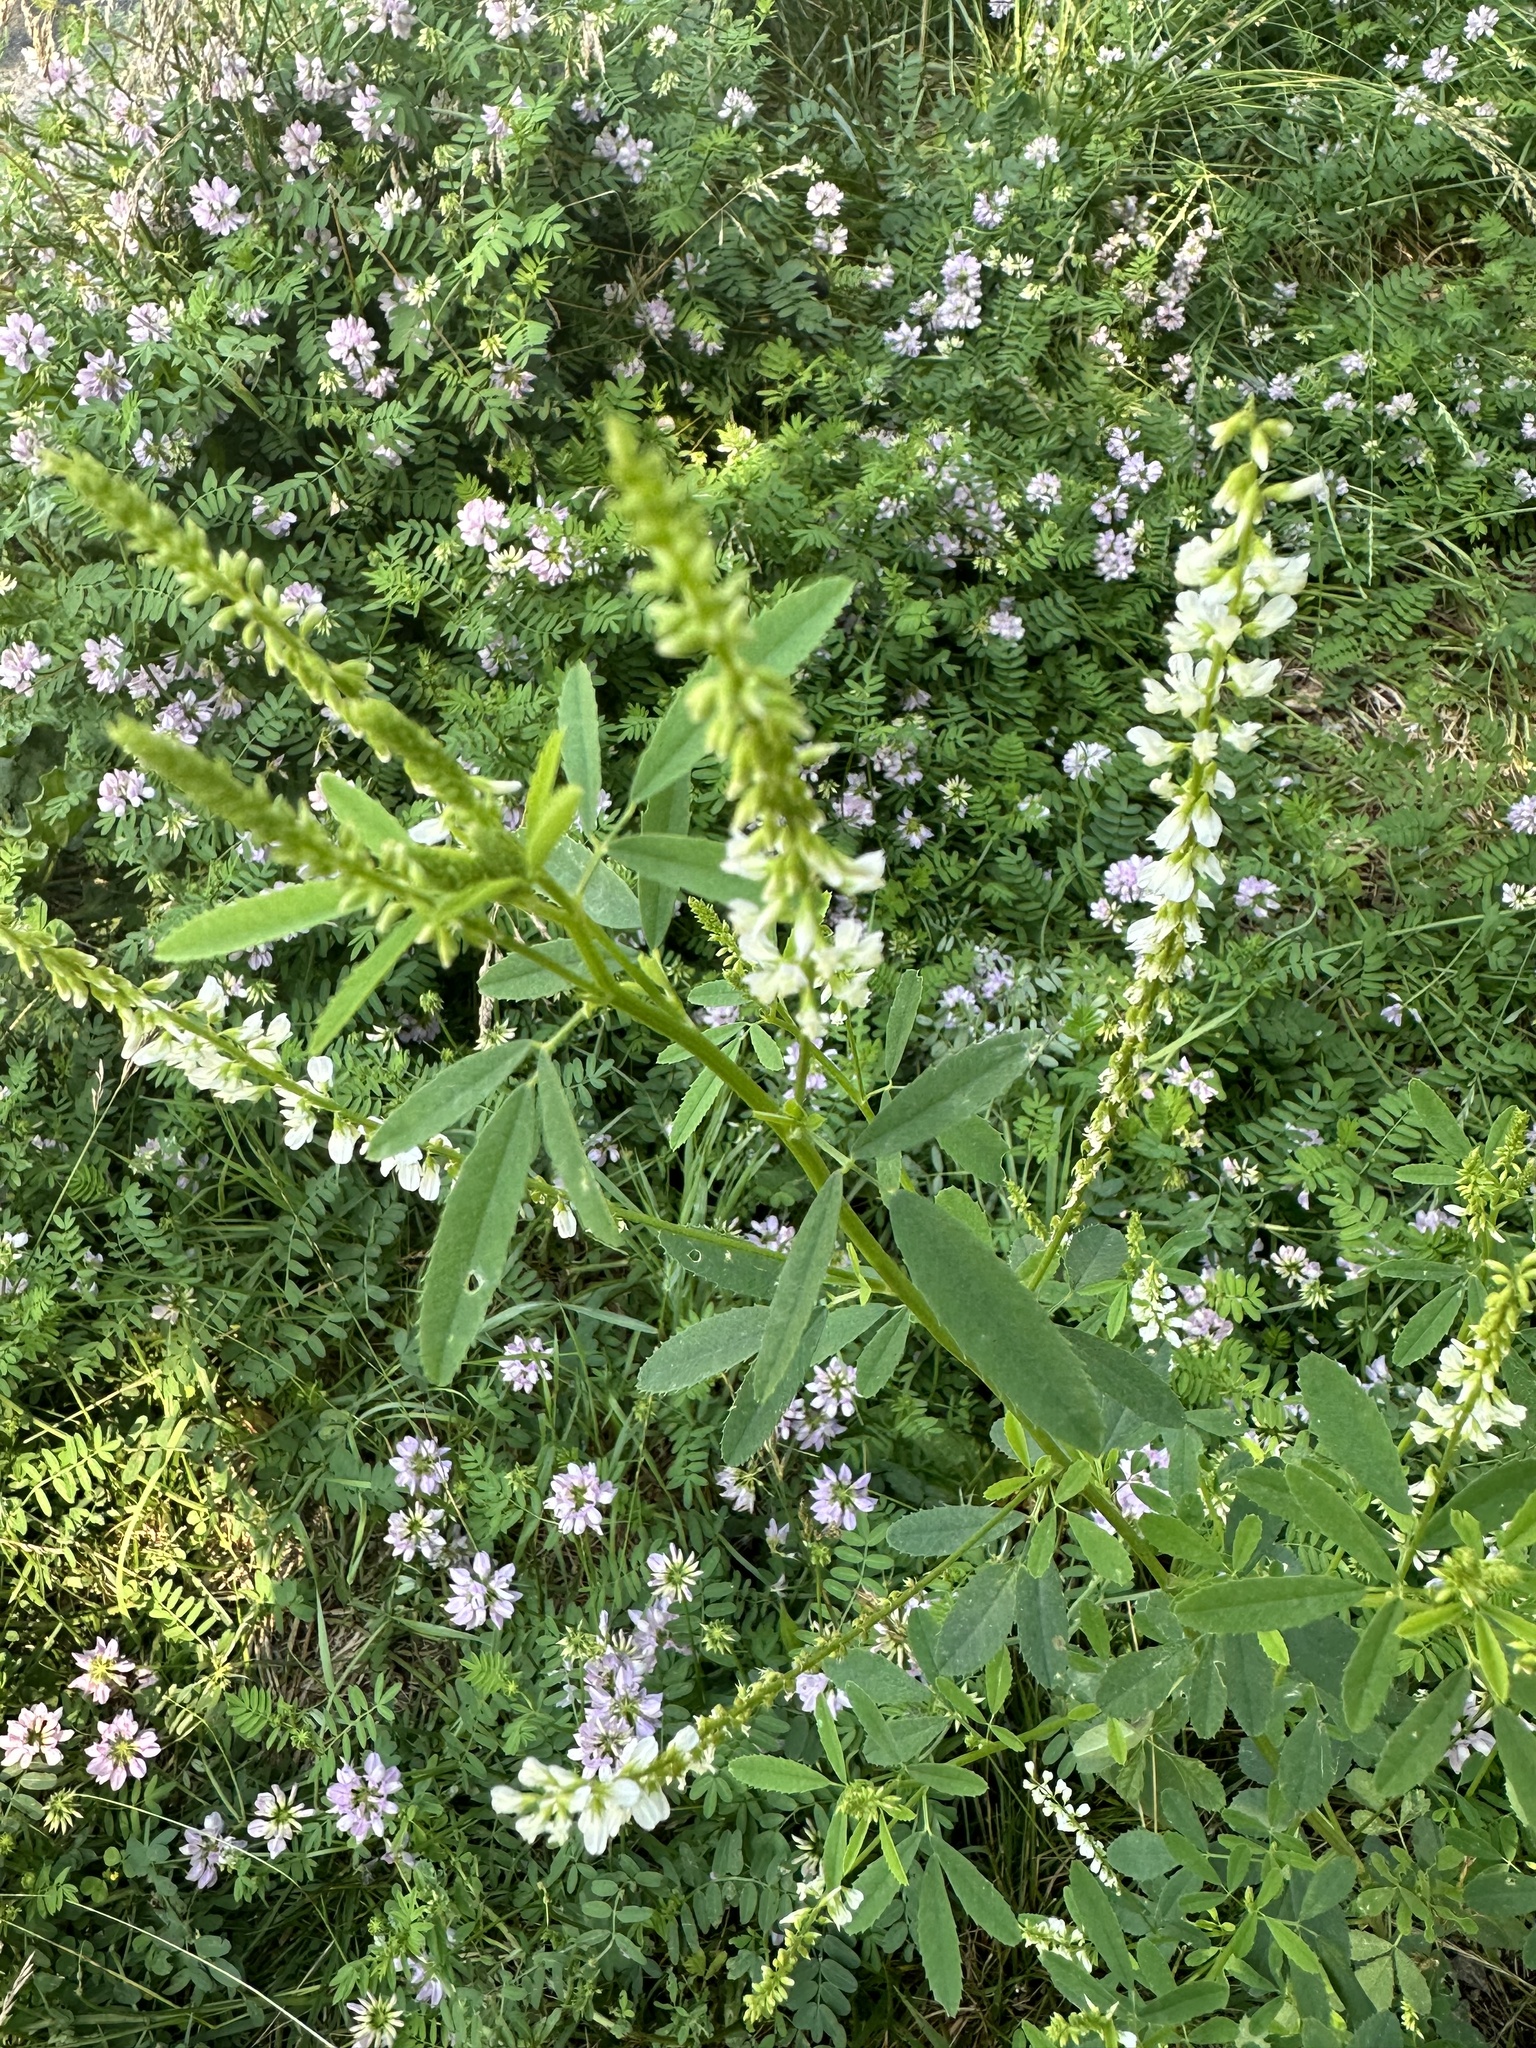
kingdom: Plantae
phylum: Tracheophyta
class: Magnoliopsida
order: Fabales
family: Fabaceae
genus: Melilotus
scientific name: Melilotus albus
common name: White melilot
